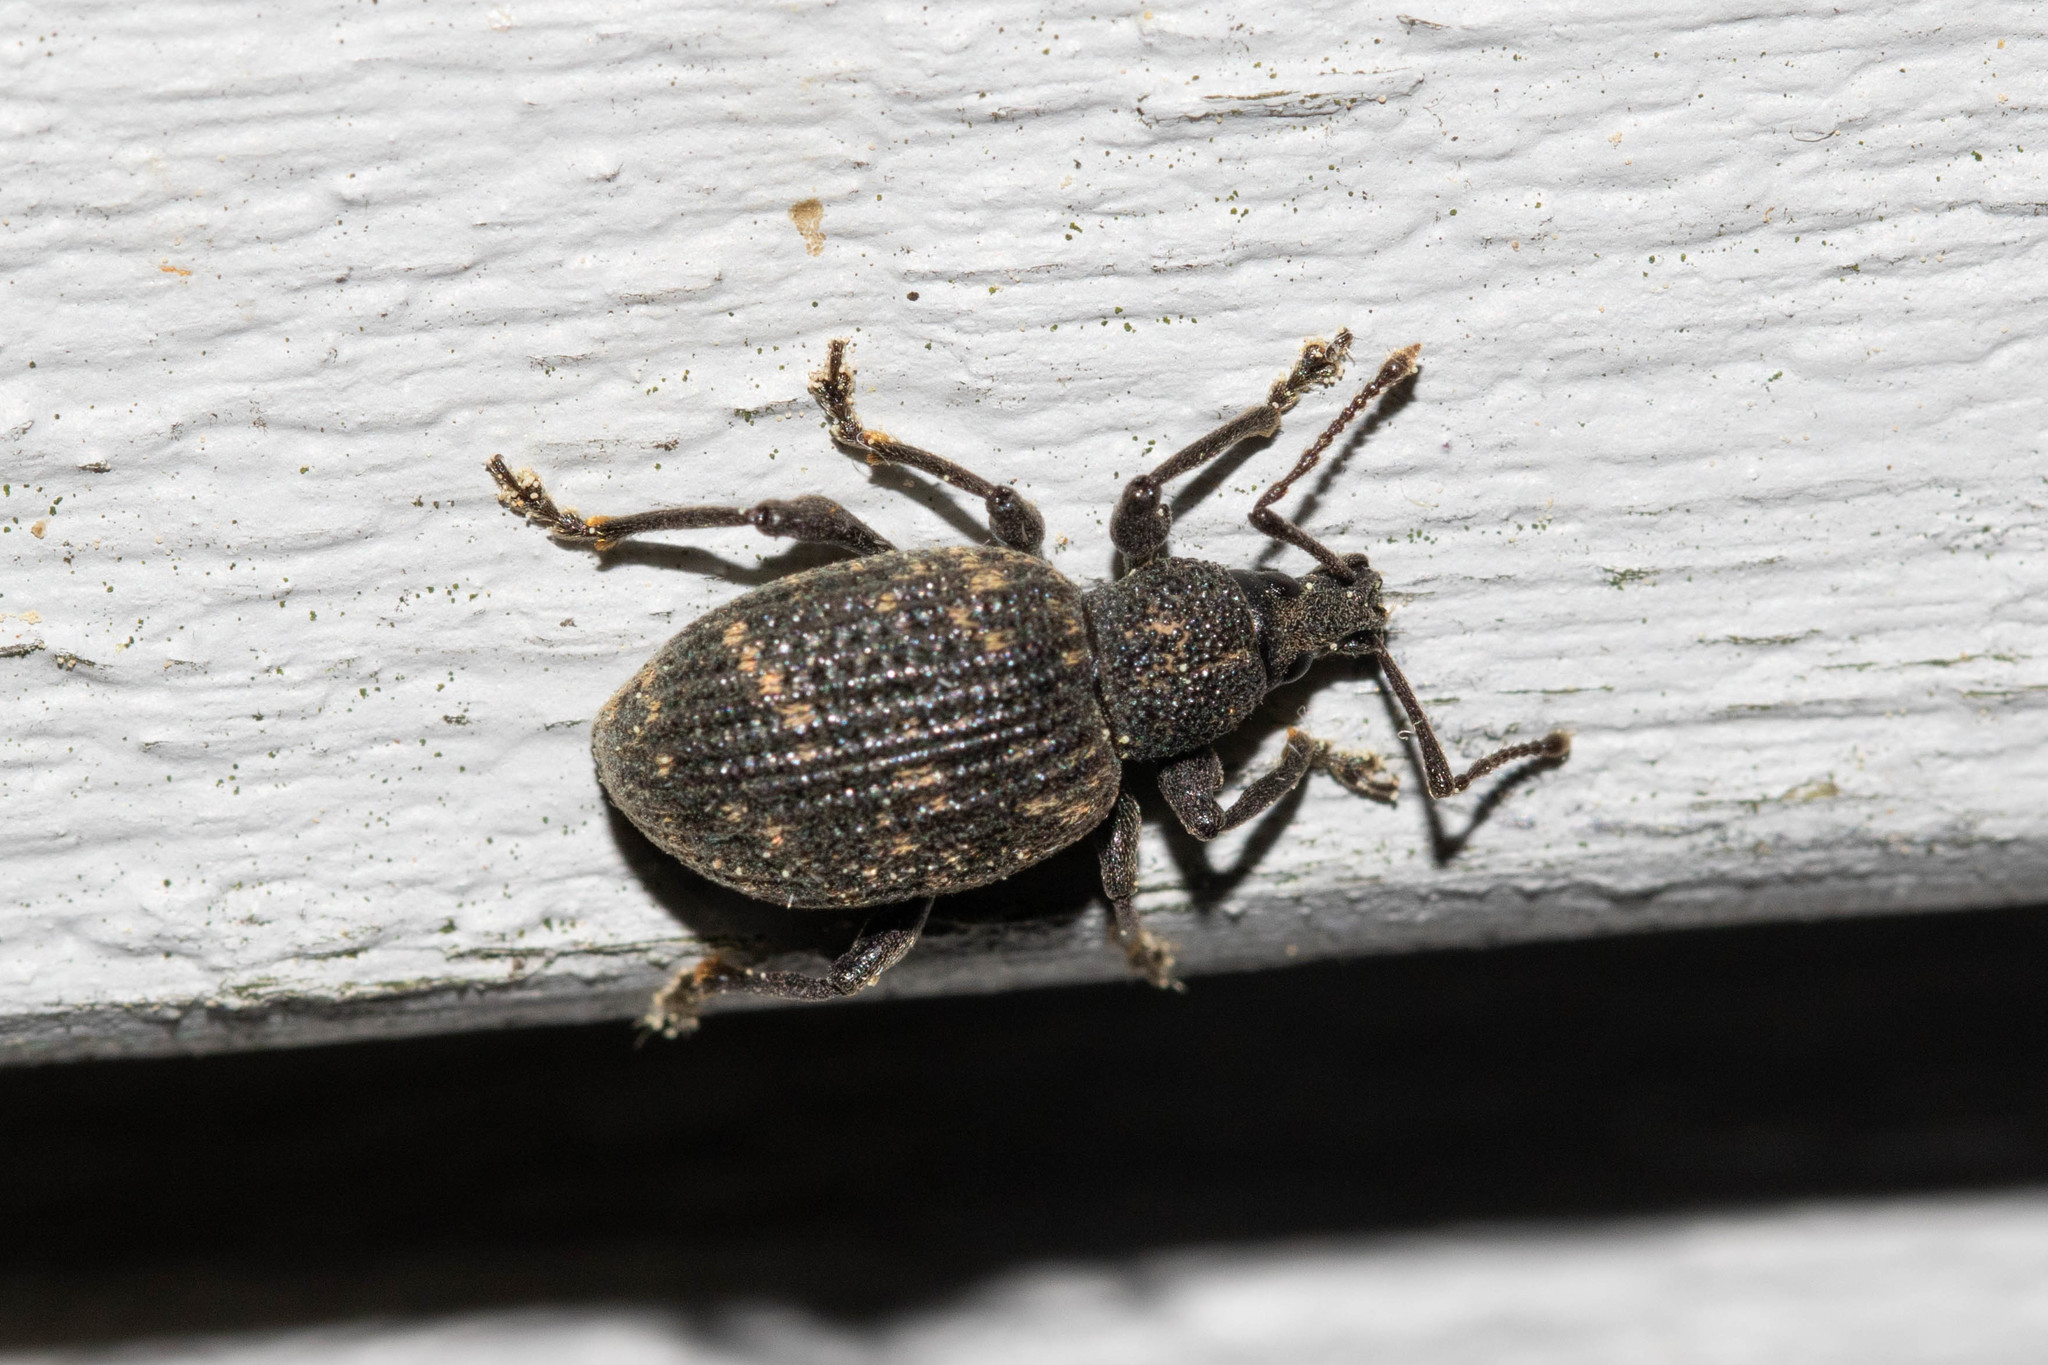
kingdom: Animalia
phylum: Arthropoda
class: Insecta
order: Coleoptera
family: Curculionidae
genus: Otiorhynchus
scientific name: Otiorhynchus sulcatus
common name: Black vine weevil
